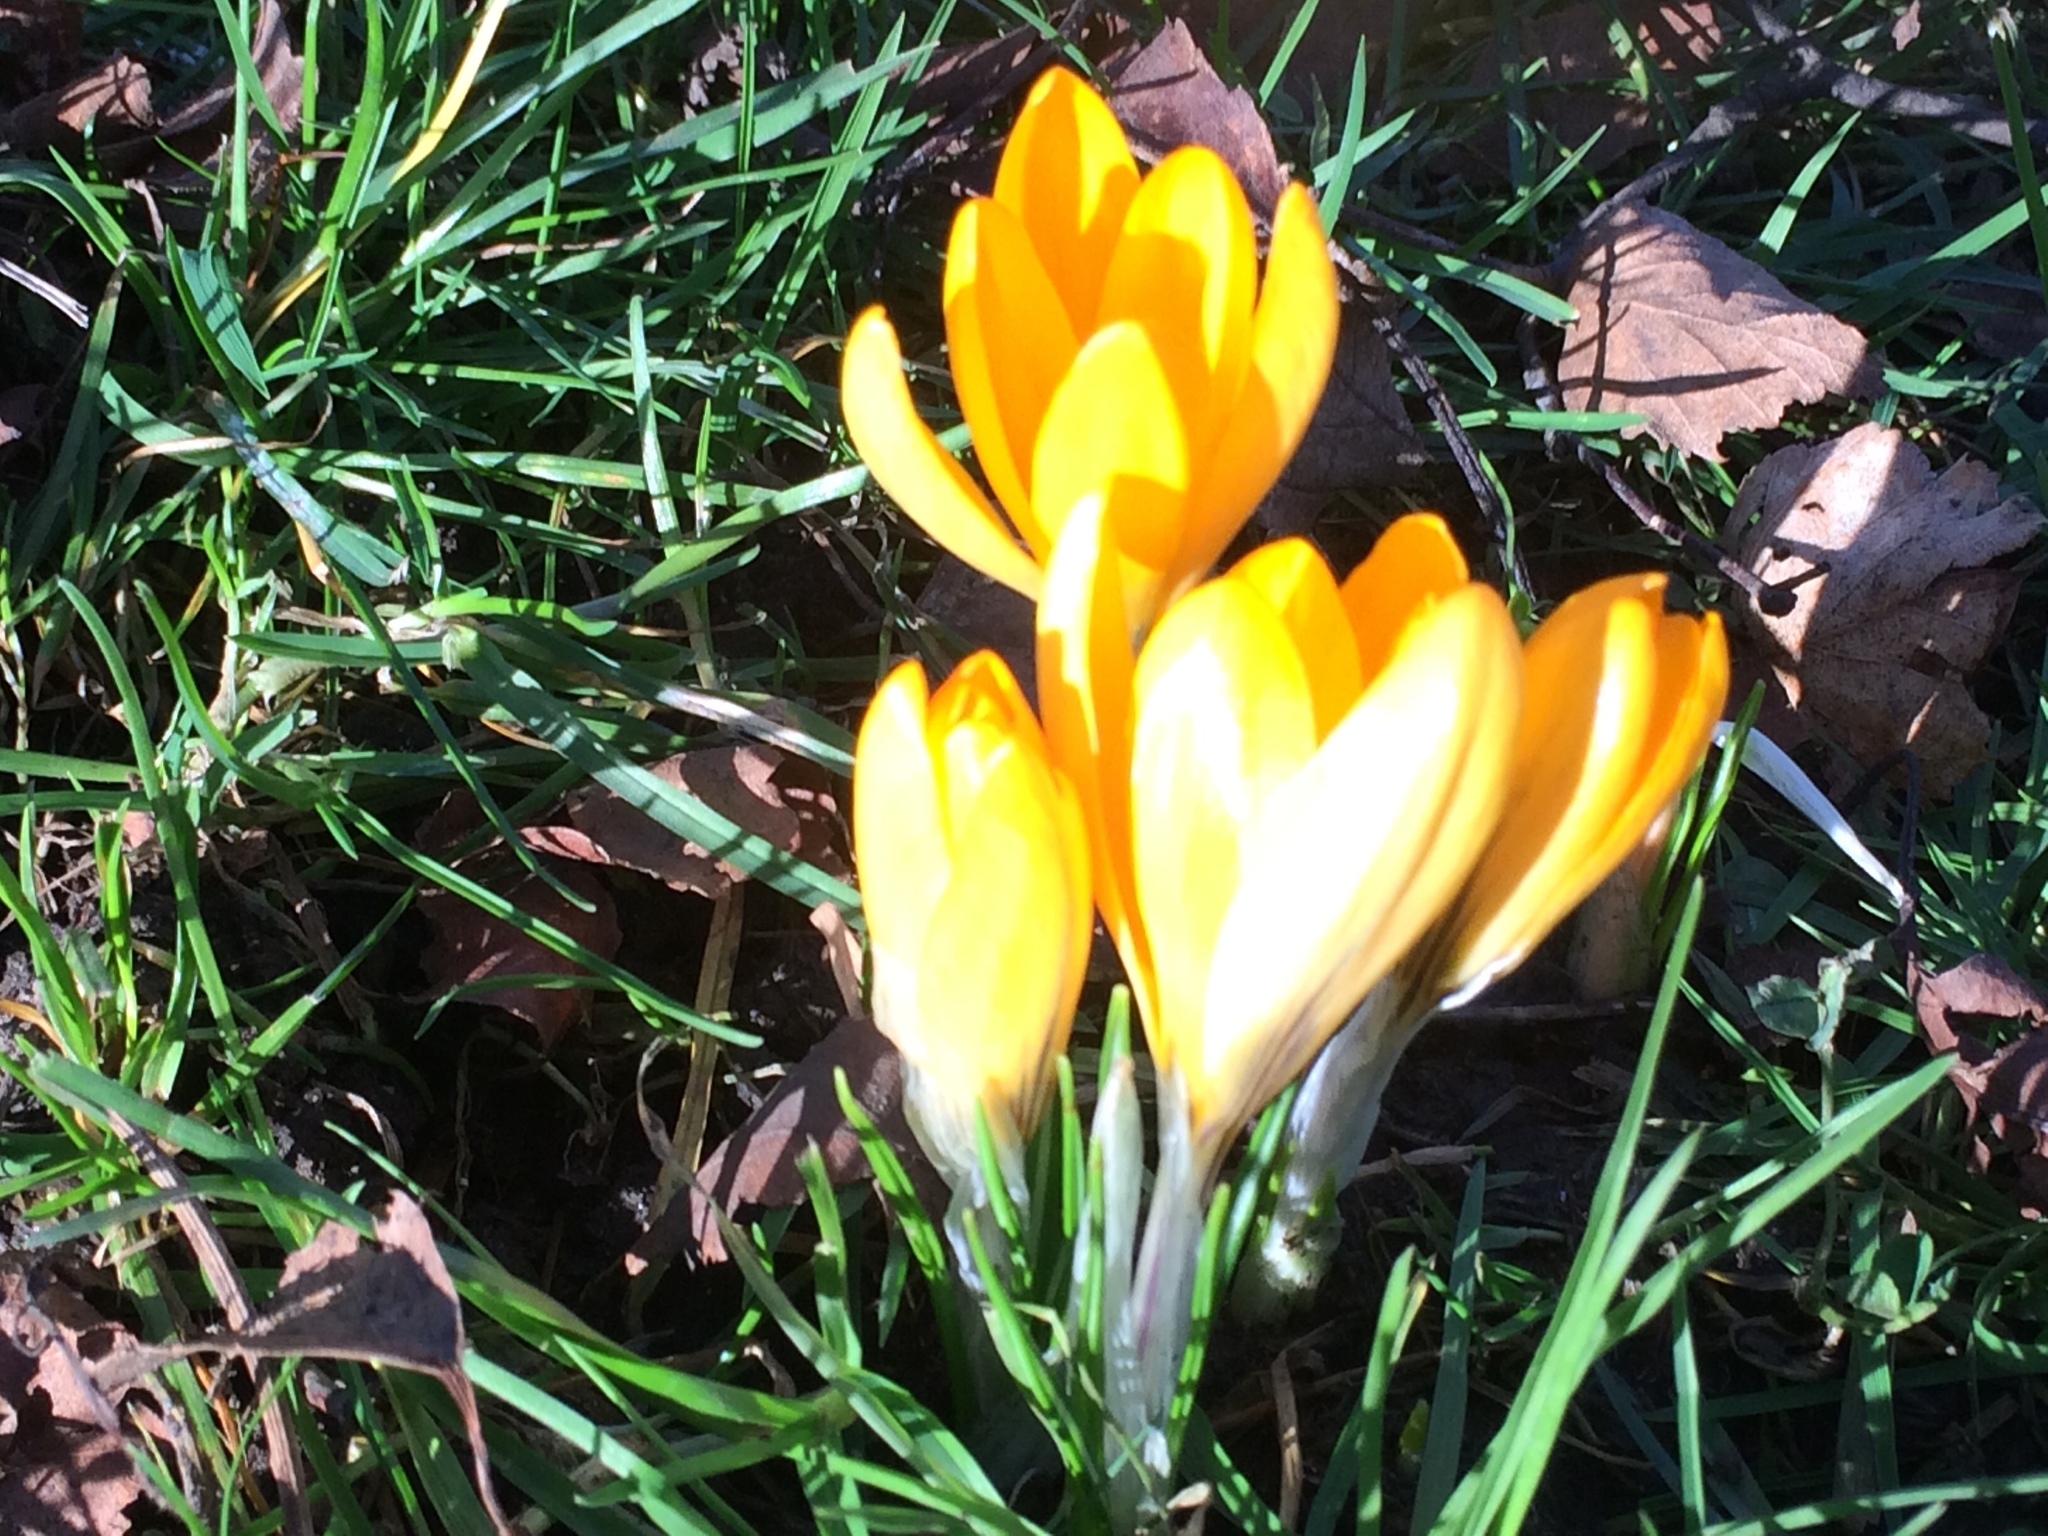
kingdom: Plantae
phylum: Tracheophyta
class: Liliopsida
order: Asparagales
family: Iridaceae
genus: Crocus
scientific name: Crocus luteus
